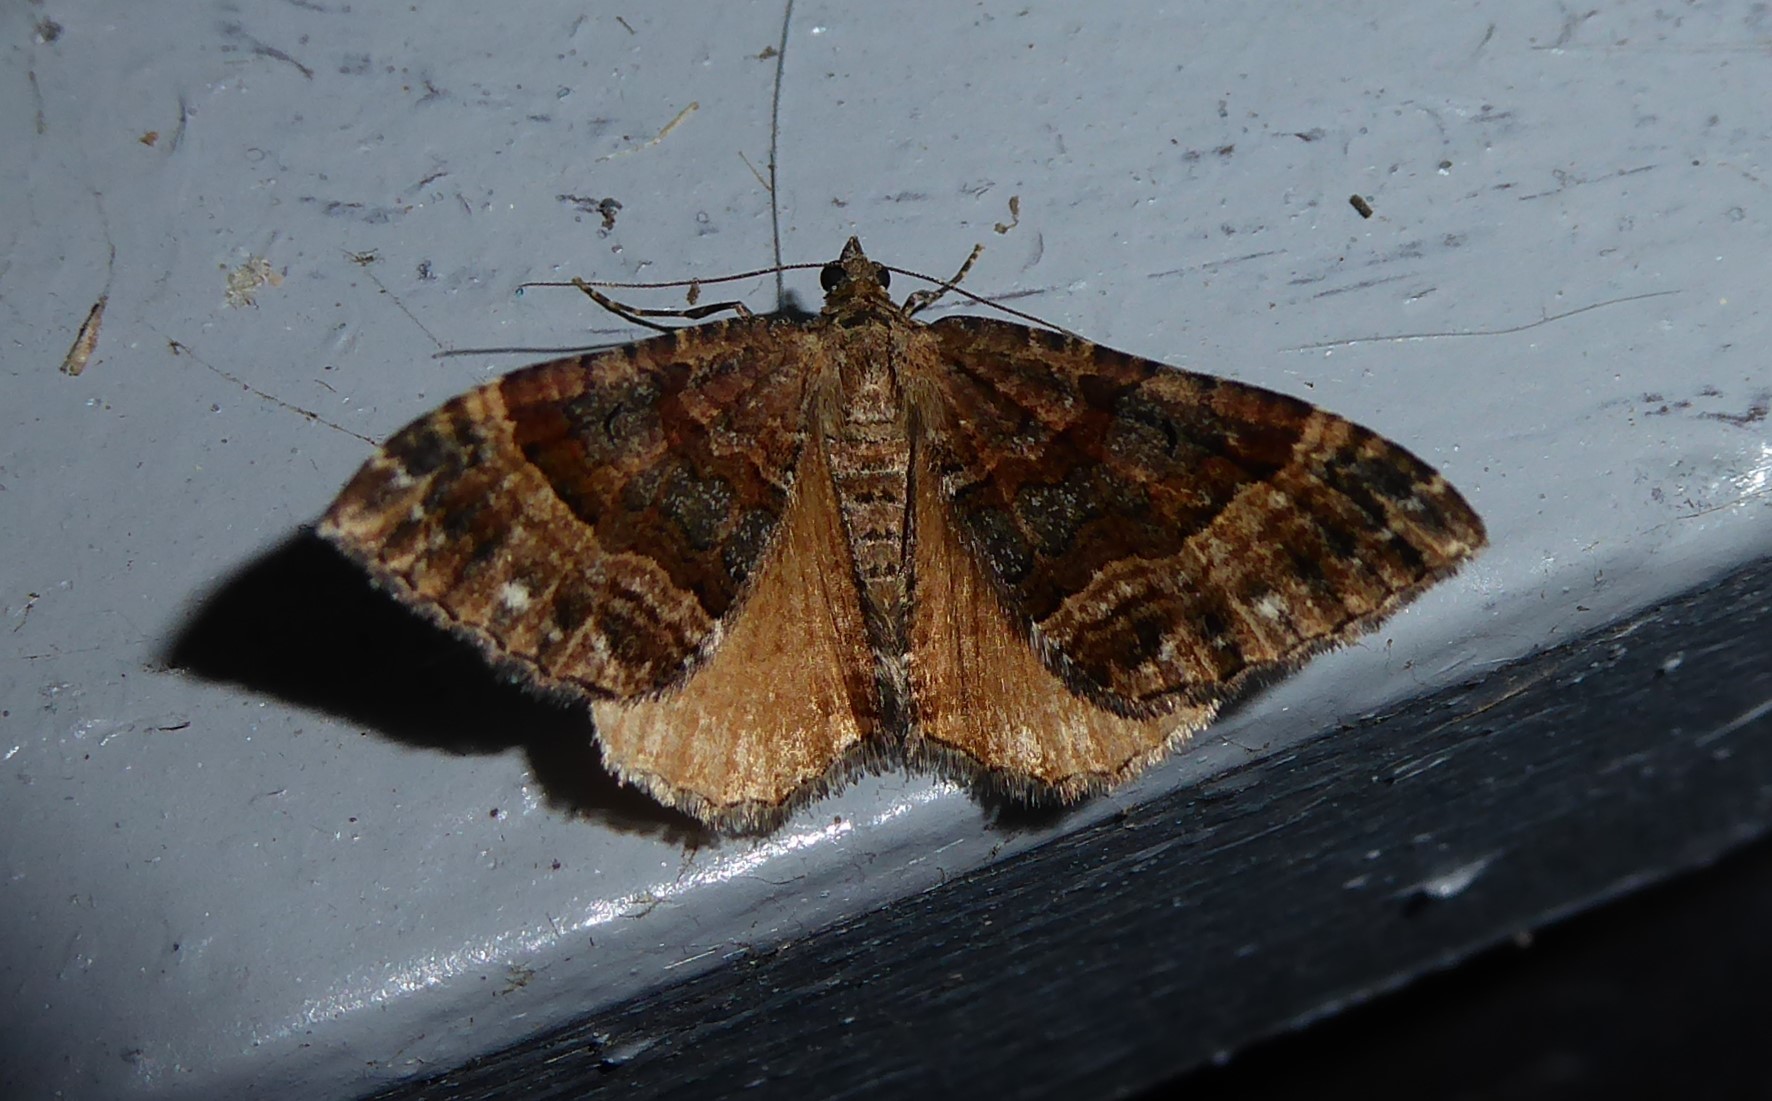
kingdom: Animalia
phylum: Arthropoda
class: Insecta
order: Lepidoptera
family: Geometridae
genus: Hydriomena
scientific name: Hydriomena deltoidata
